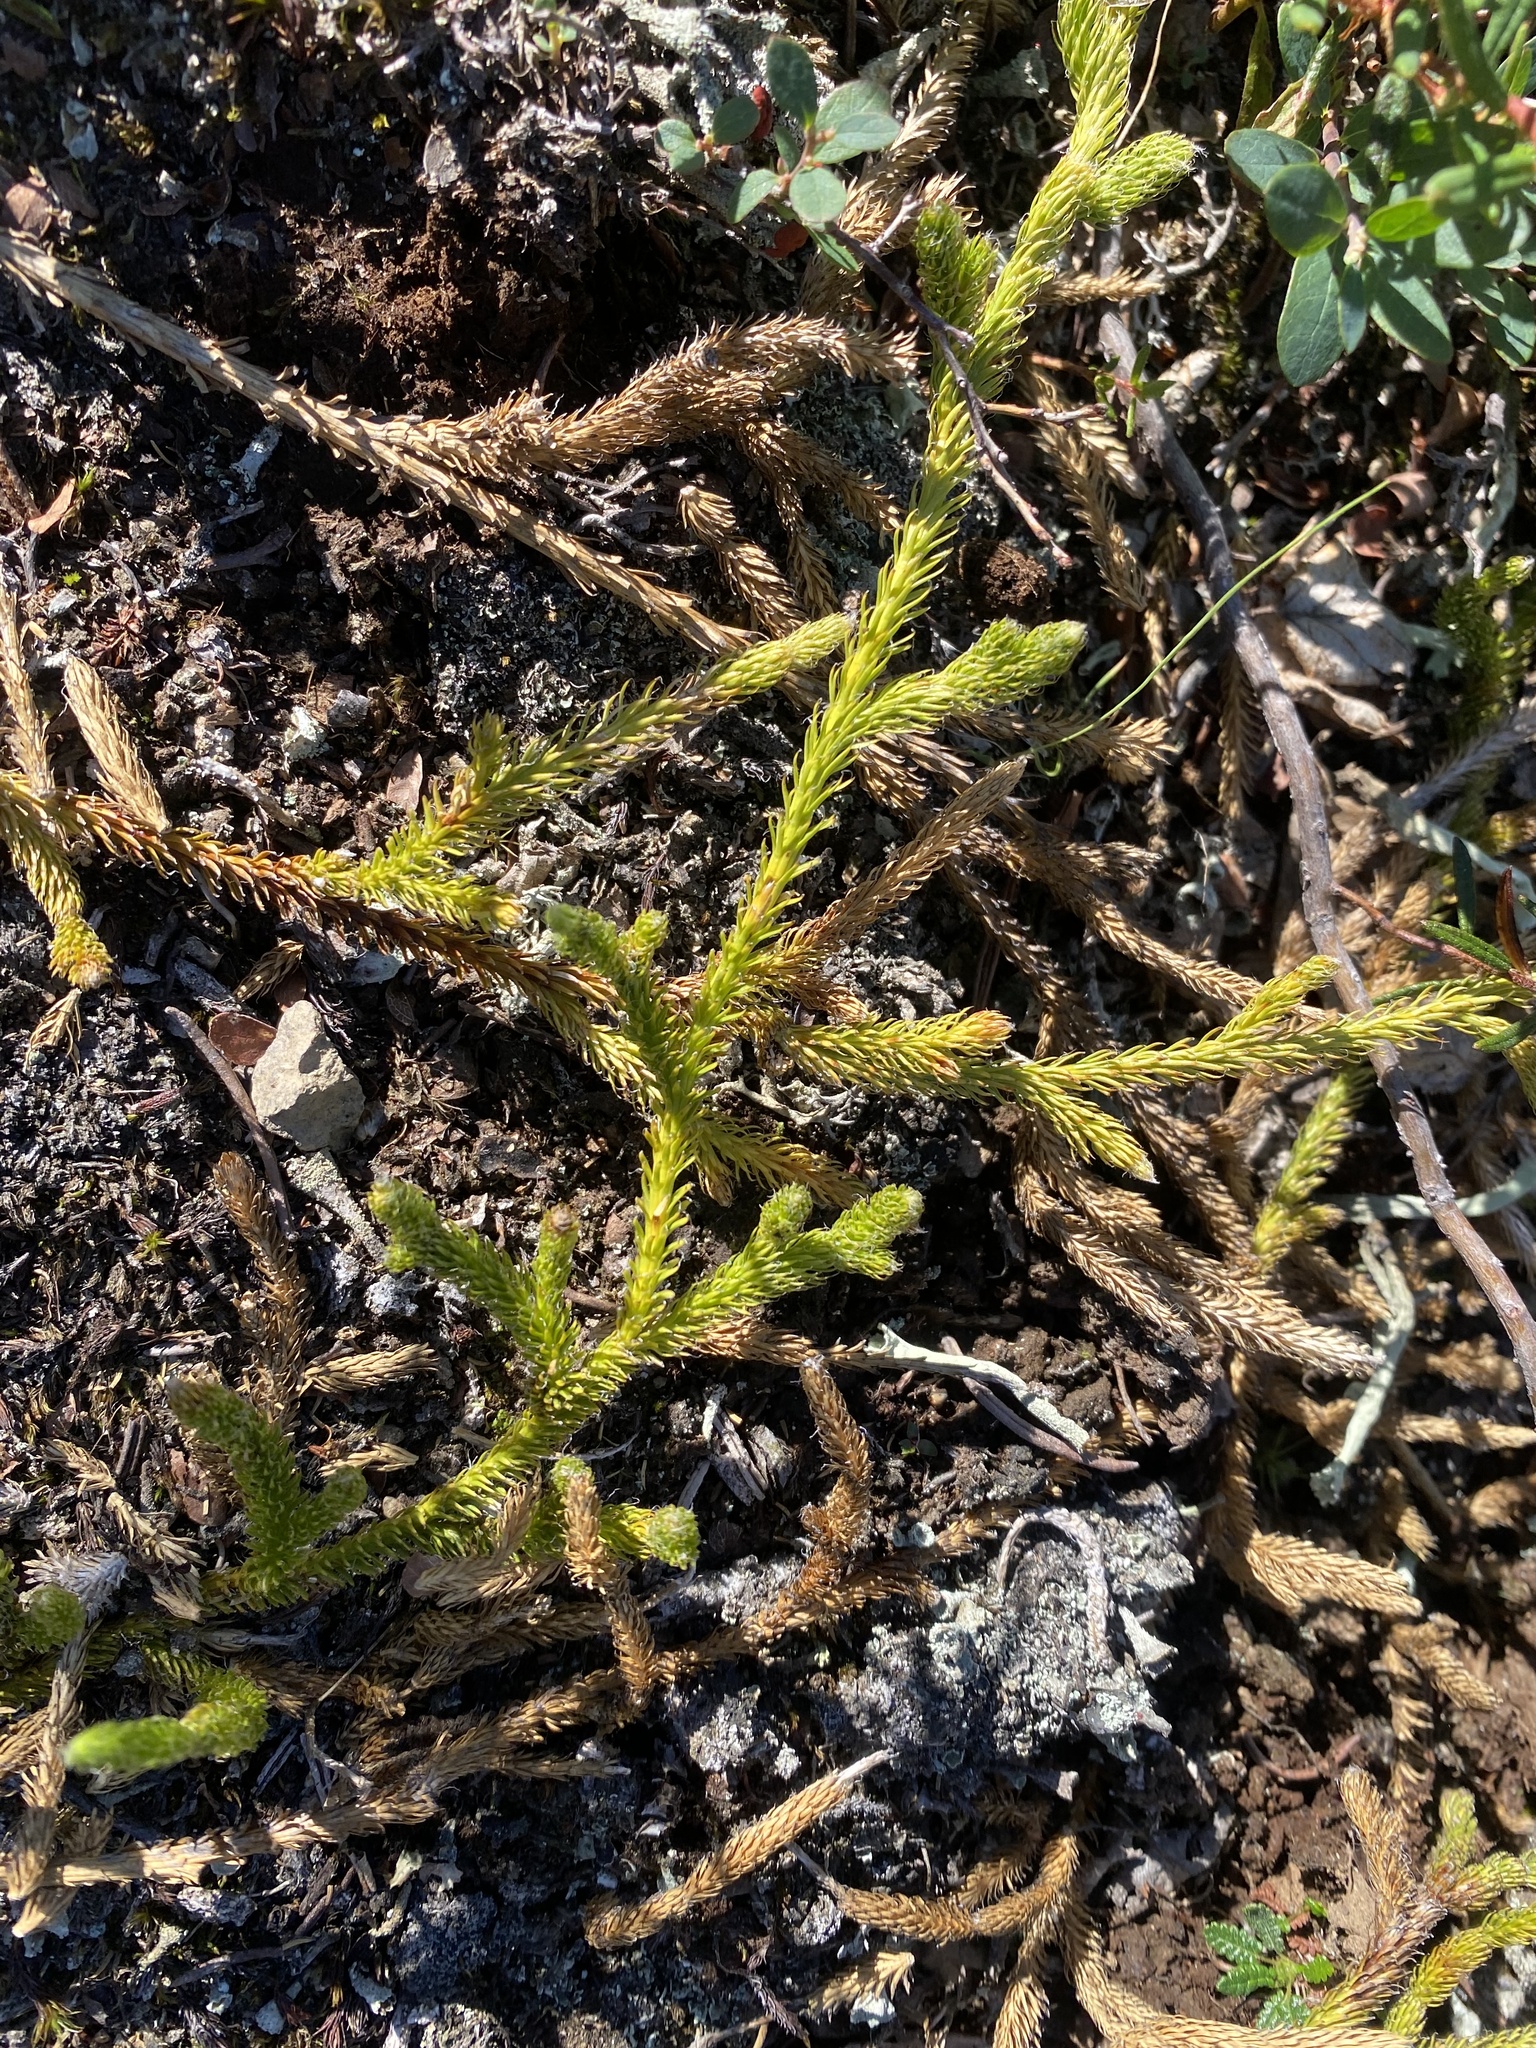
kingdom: Plantae
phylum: Tracheophyta
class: Lycopodiopsida
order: Lycopodiales
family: Lycopodiaceae
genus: Lycopodium
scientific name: Lycopodium lagopus
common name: One-cone clubmoss
